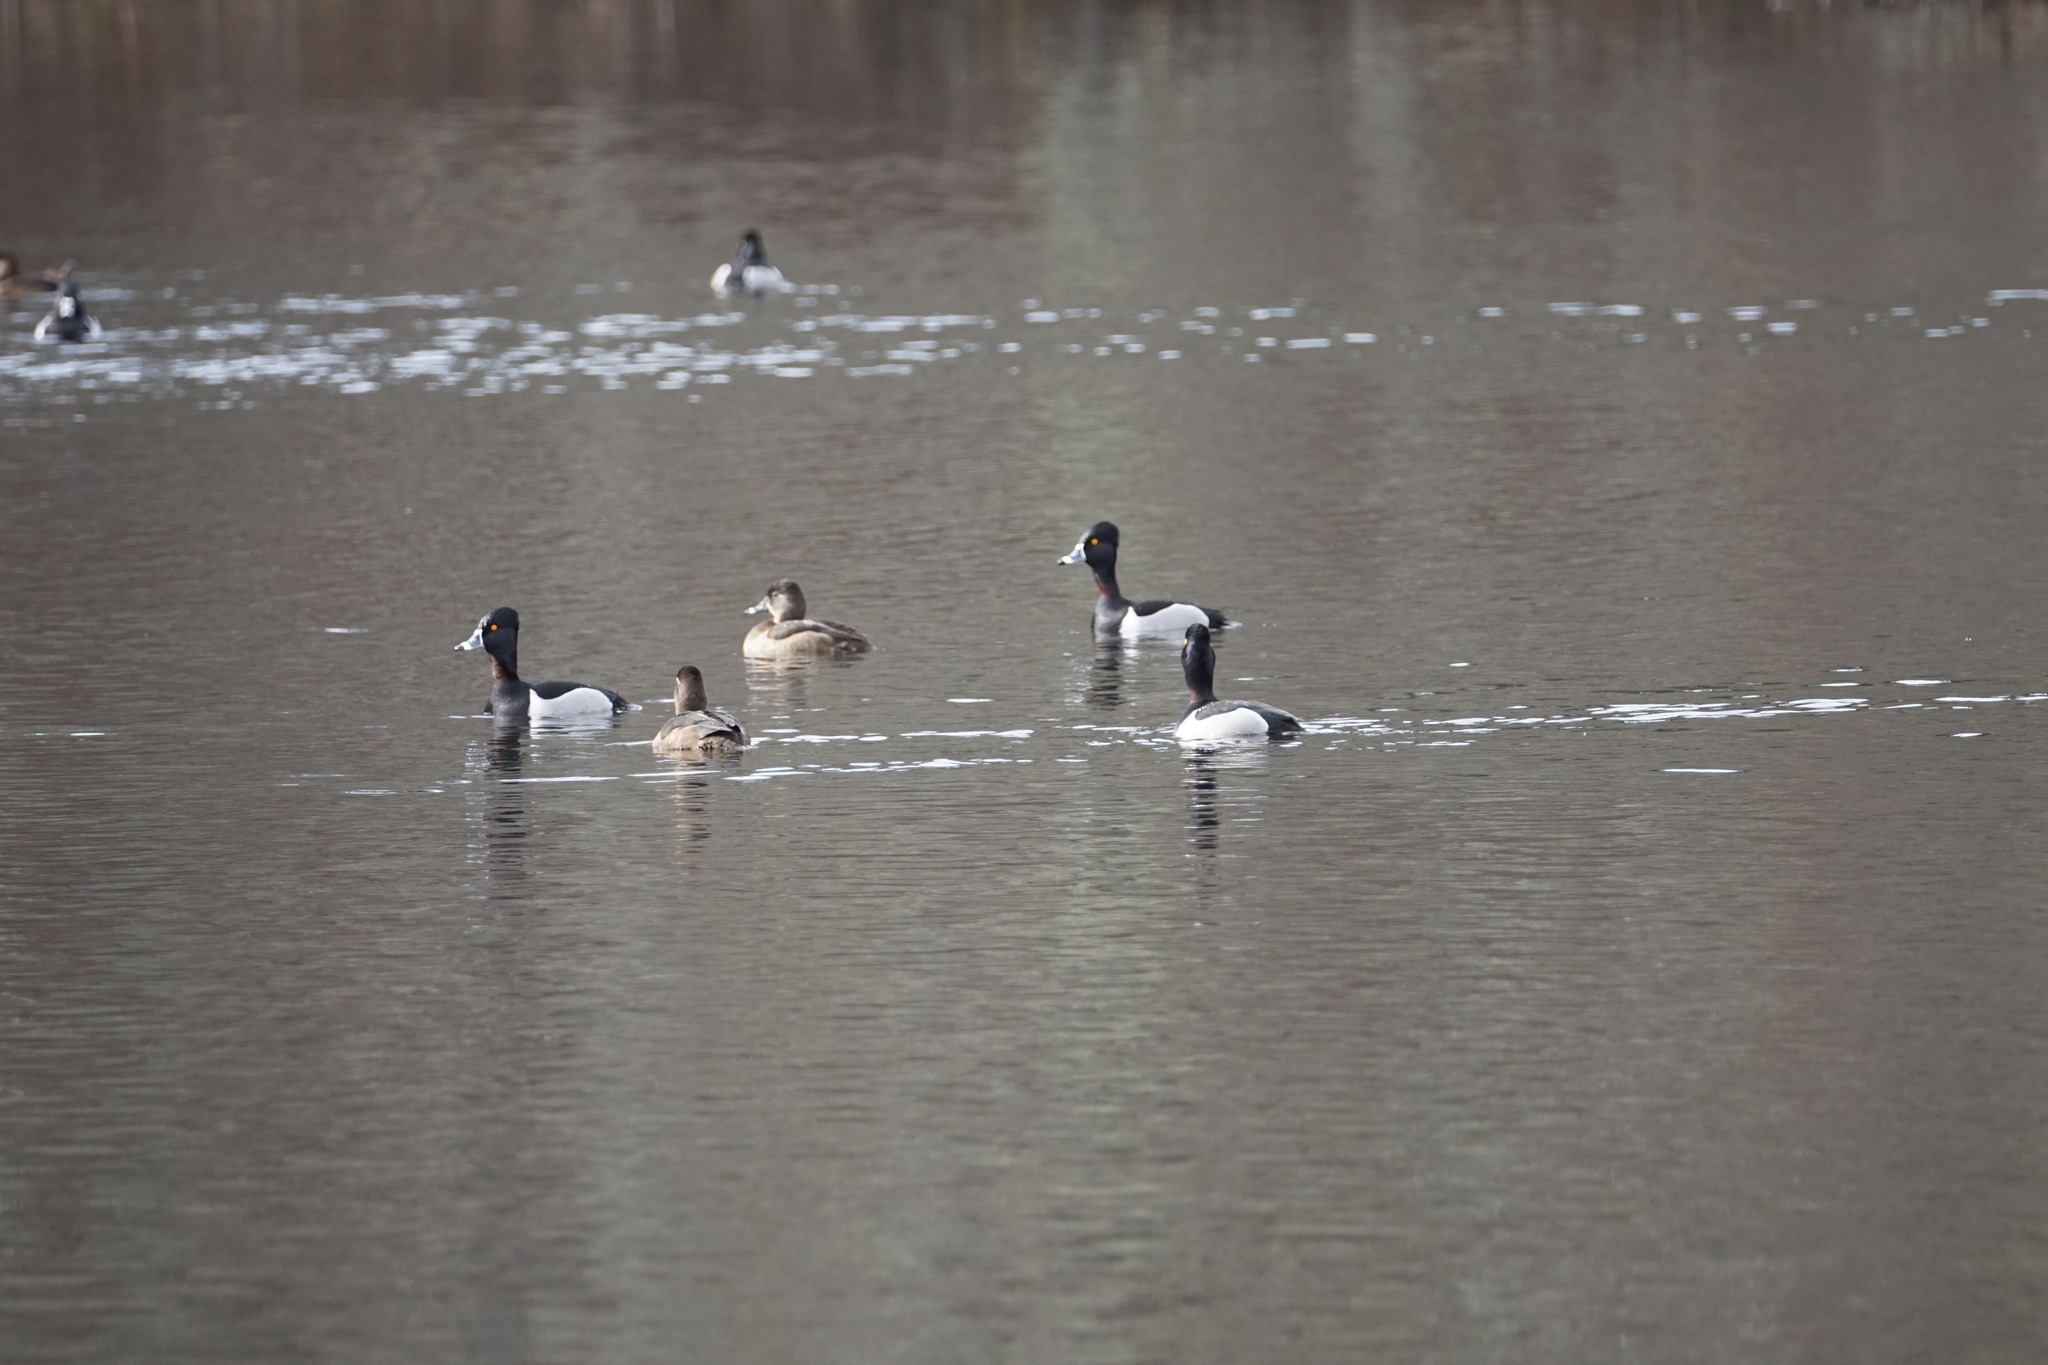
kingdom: Animalia
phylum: Chordata
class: Aves
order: Anseriformes
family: Anatidae
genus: Aythya
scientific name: Aythya collaris
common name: Ring-necked duck
